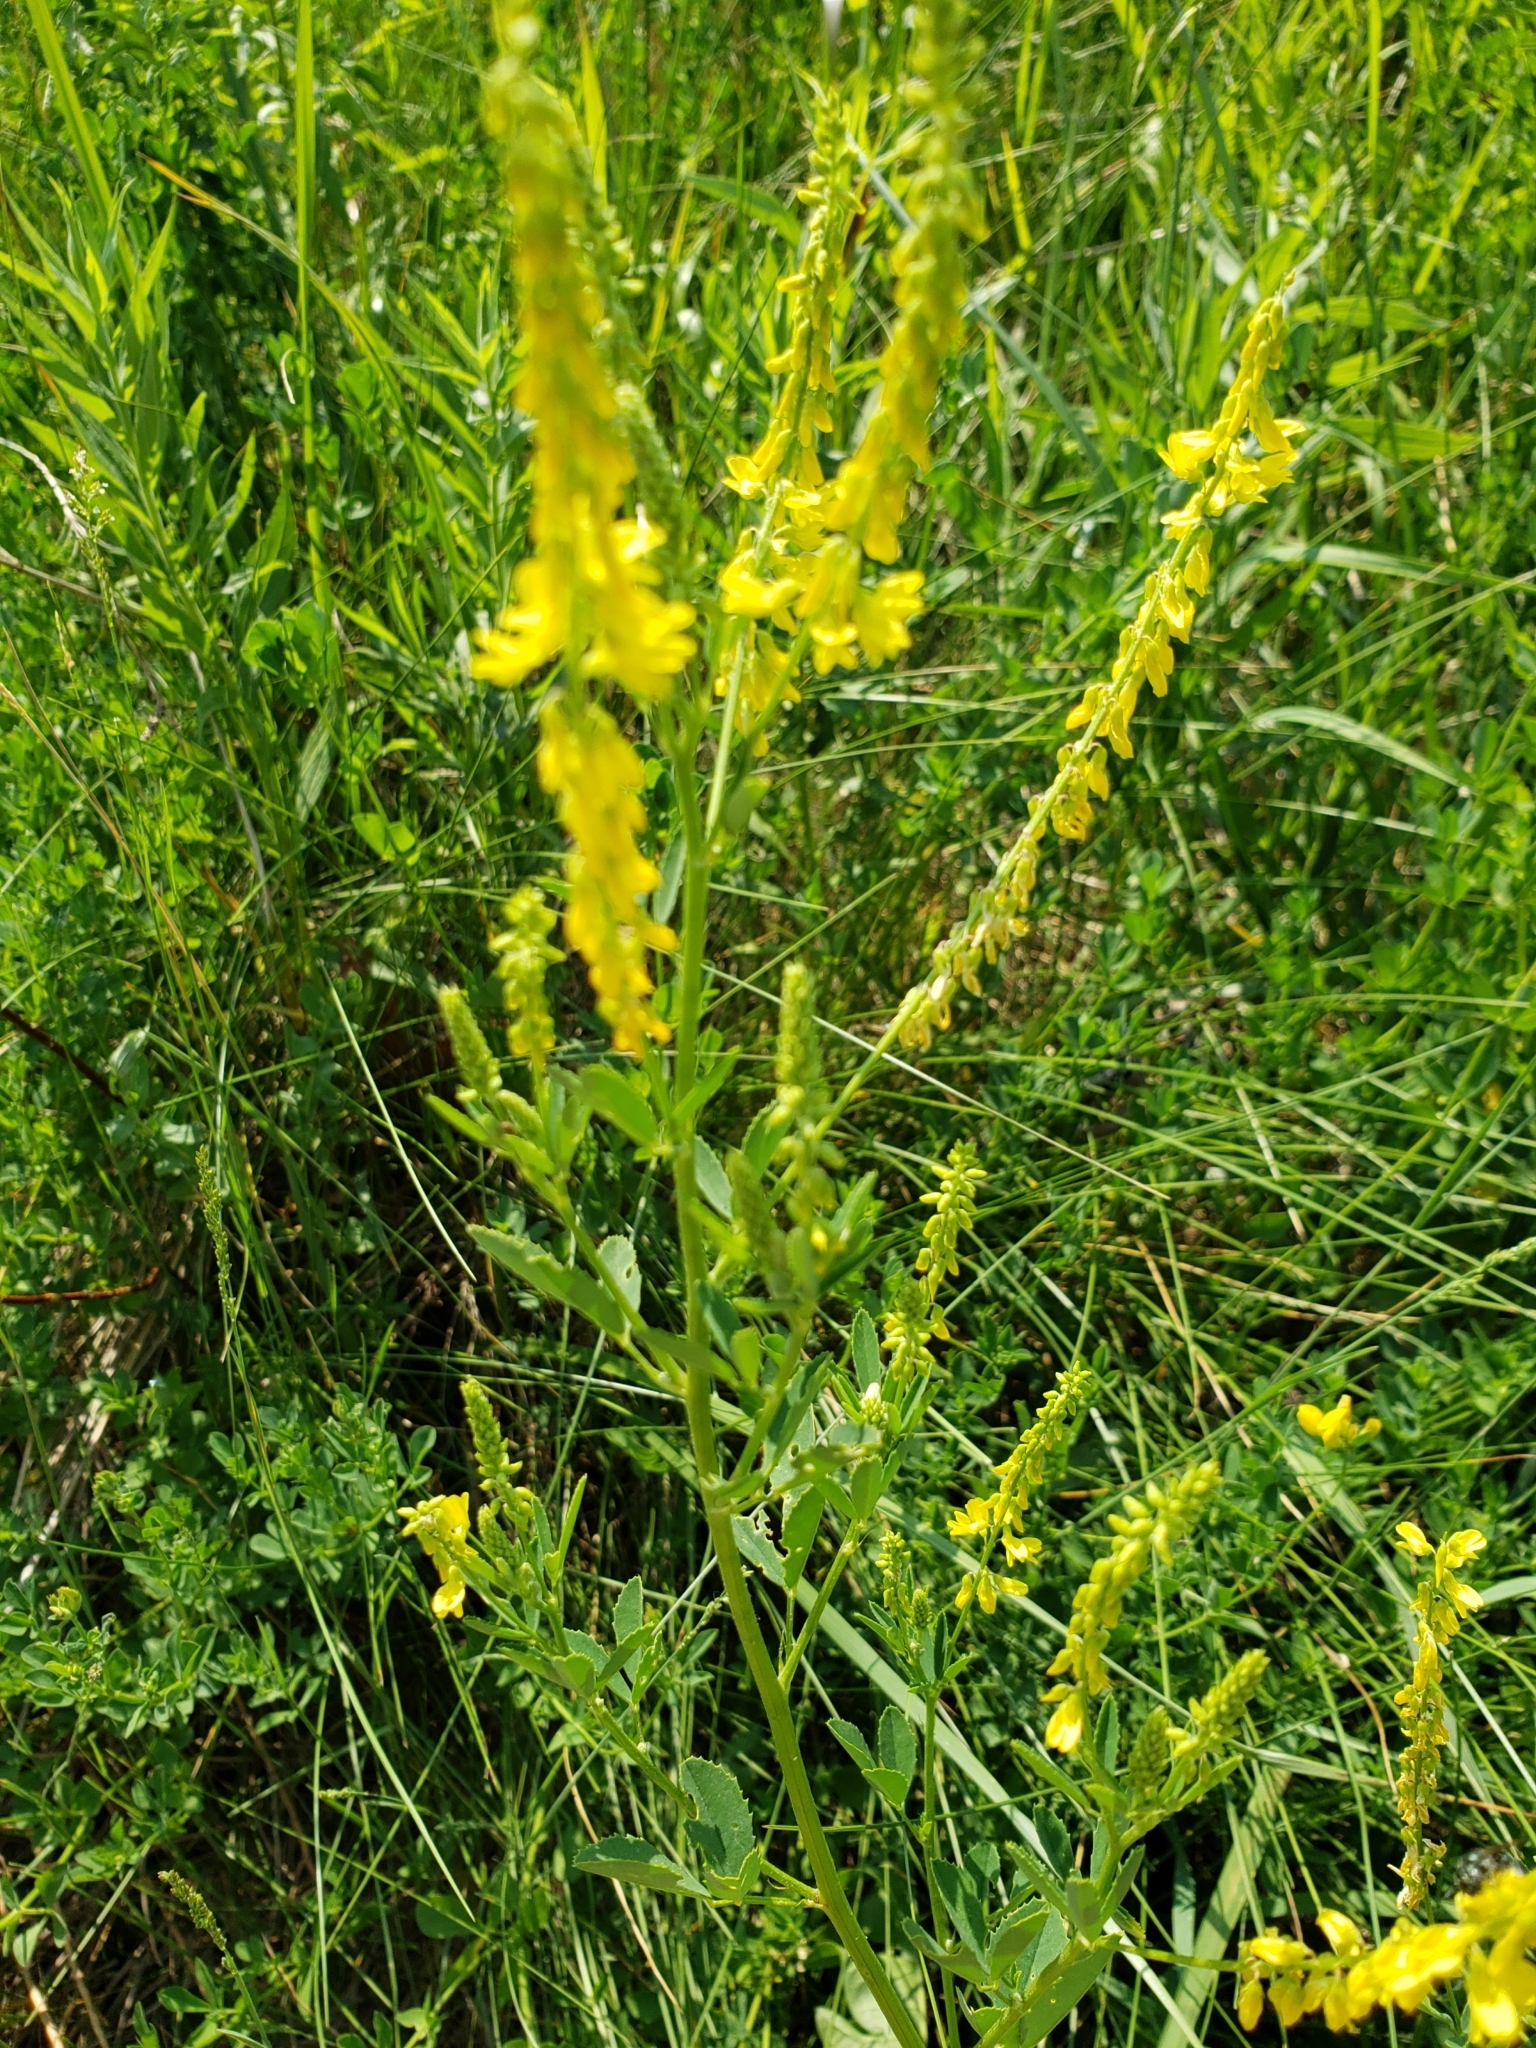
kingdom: Plantae
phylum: Tracheophyta
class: Magnoliopsida
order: Fabales
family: Fabaceae
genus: Melilotus
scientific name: Melilotus officinalis
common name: Sweetclover
